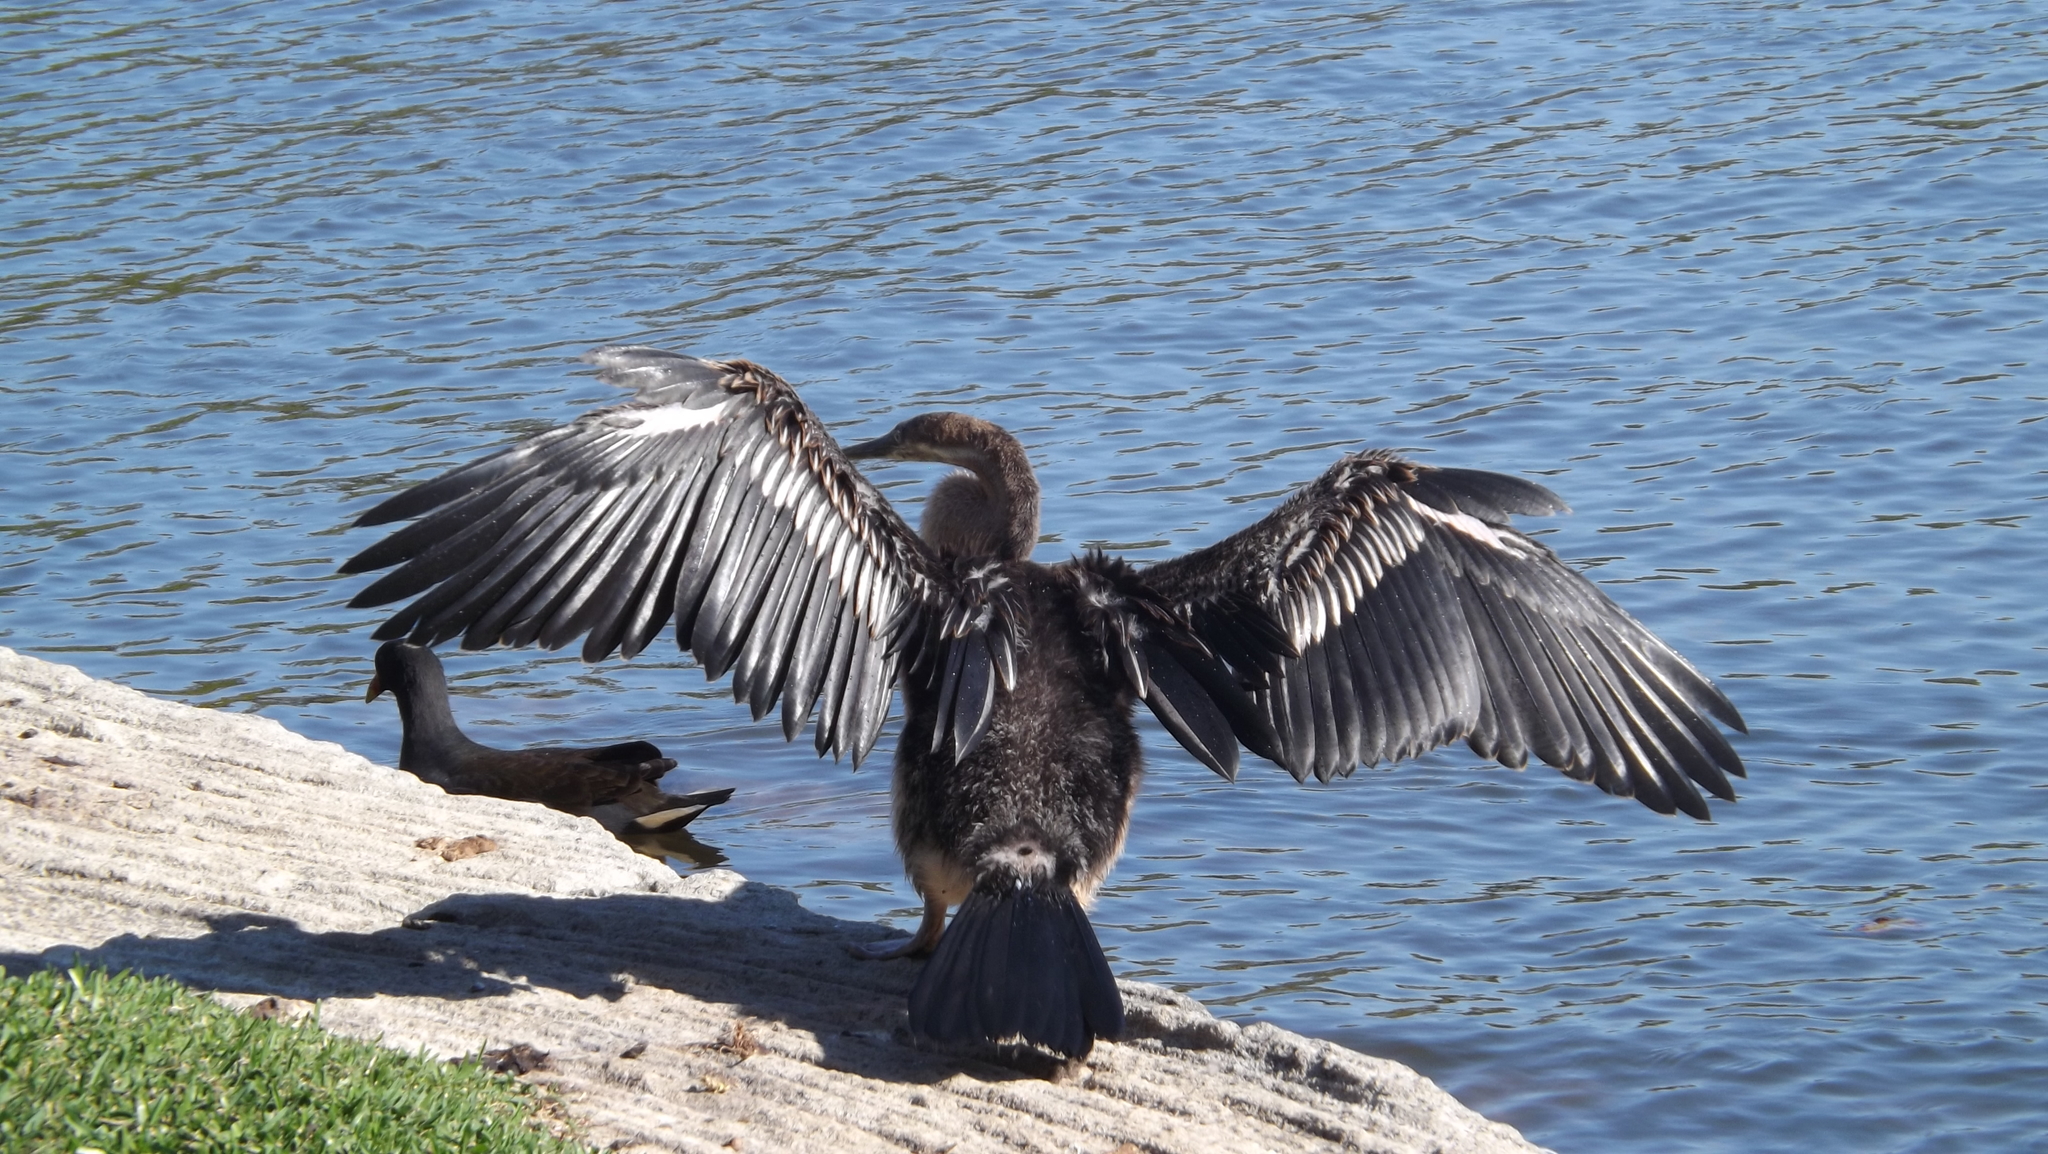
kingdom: Animalia
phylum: Chordata
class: Aves
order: Suliformes
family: Anhingidae
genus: Anhinga
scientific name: Anhinga novaehollandiae
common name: Australasian darter
